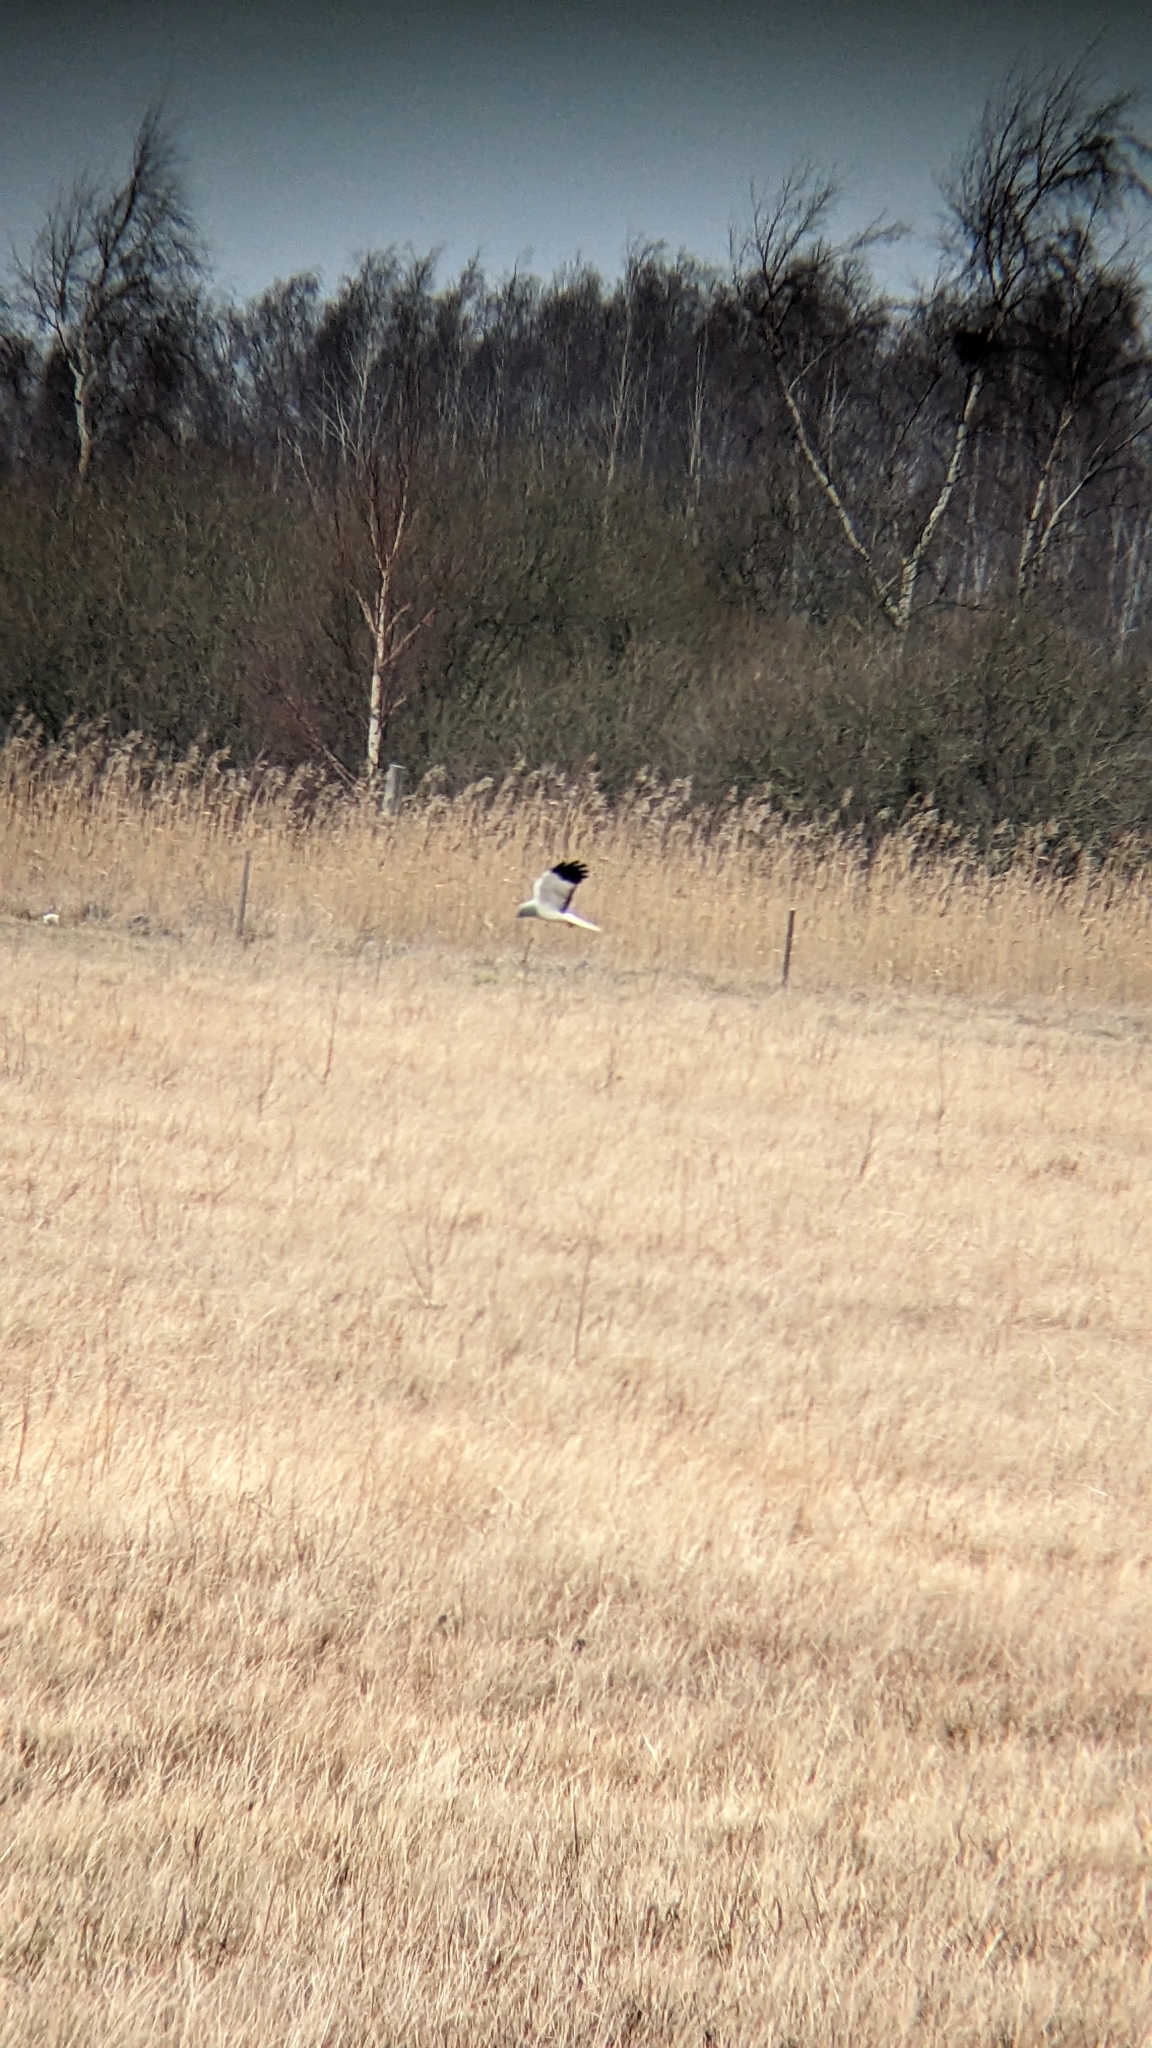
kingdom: Animalia
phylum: Chordata
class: Aves
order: Accipitriformes
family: Accipitridae
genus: Circus
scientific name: Circus cyaneus
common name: Hen harrier
